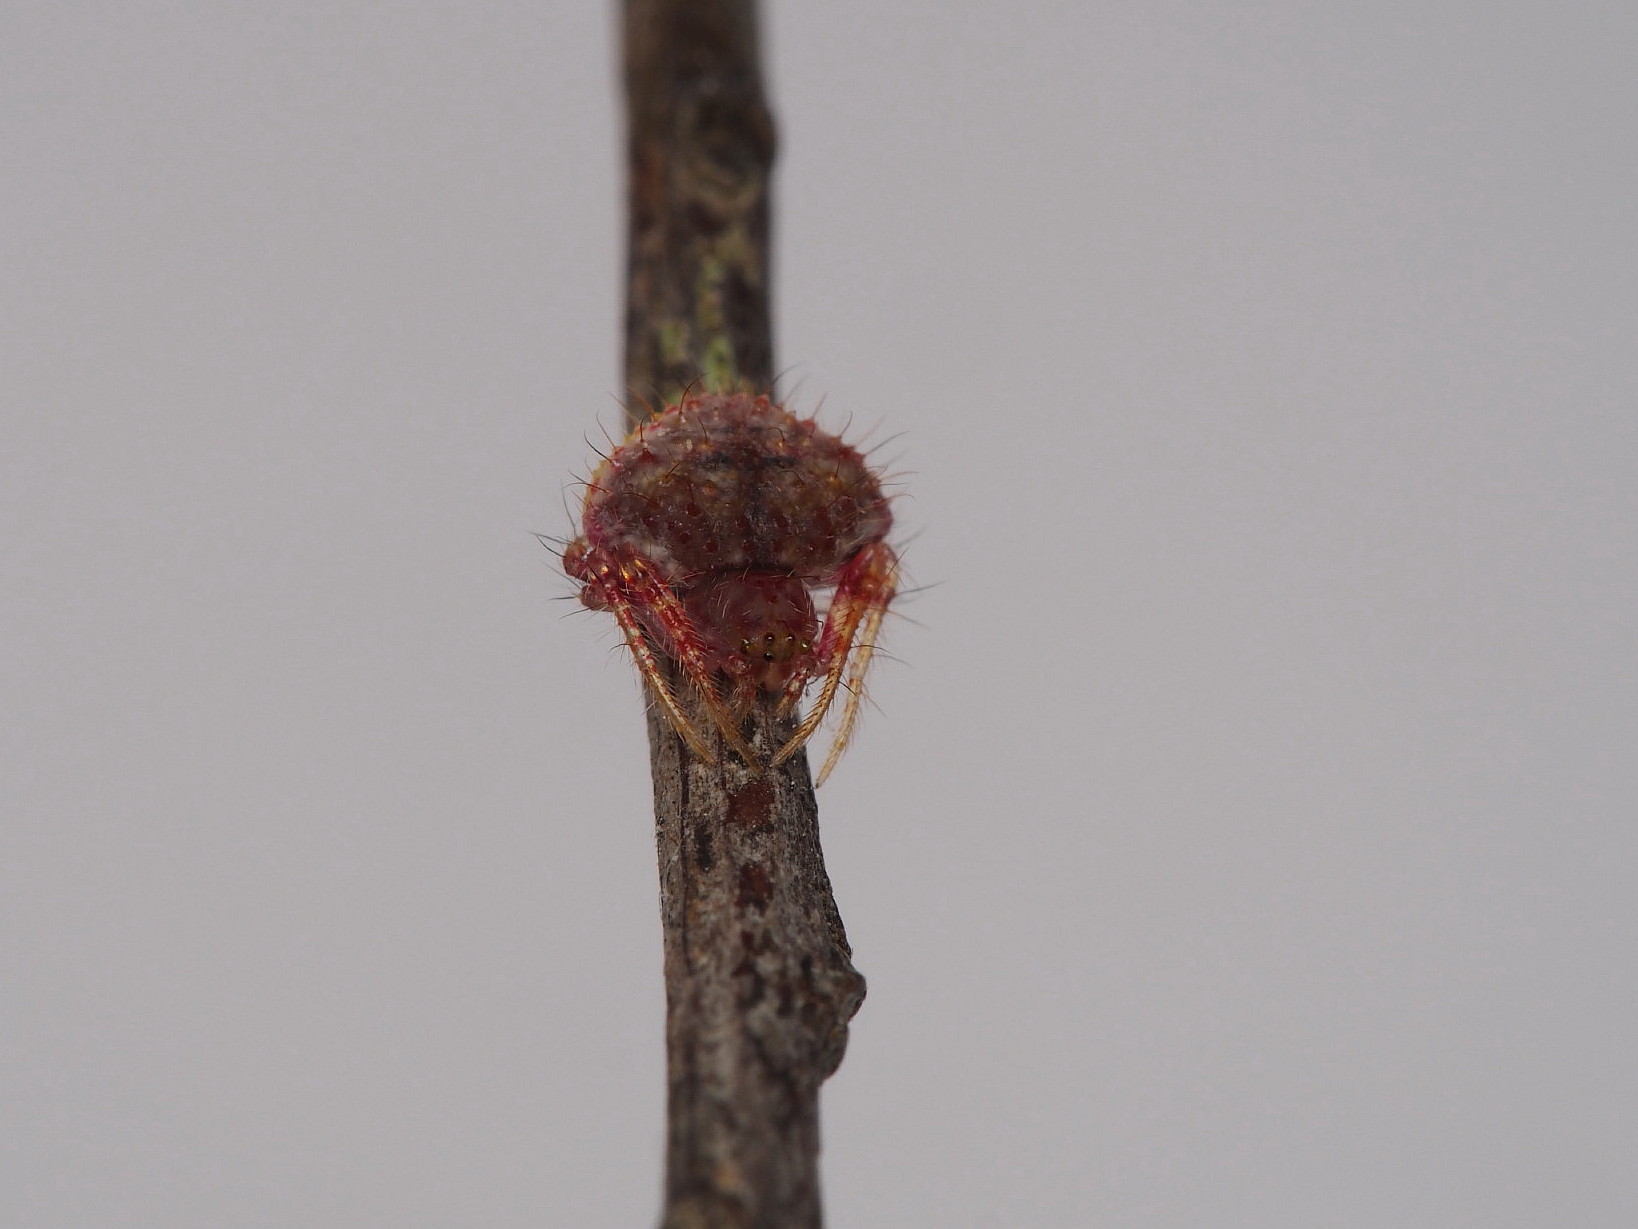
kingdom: Animalia
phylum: Arthropoda
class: Arachnida
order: Araneae
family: Araneidae
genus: Poecilopachys
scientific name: Poecilopachys australasia
